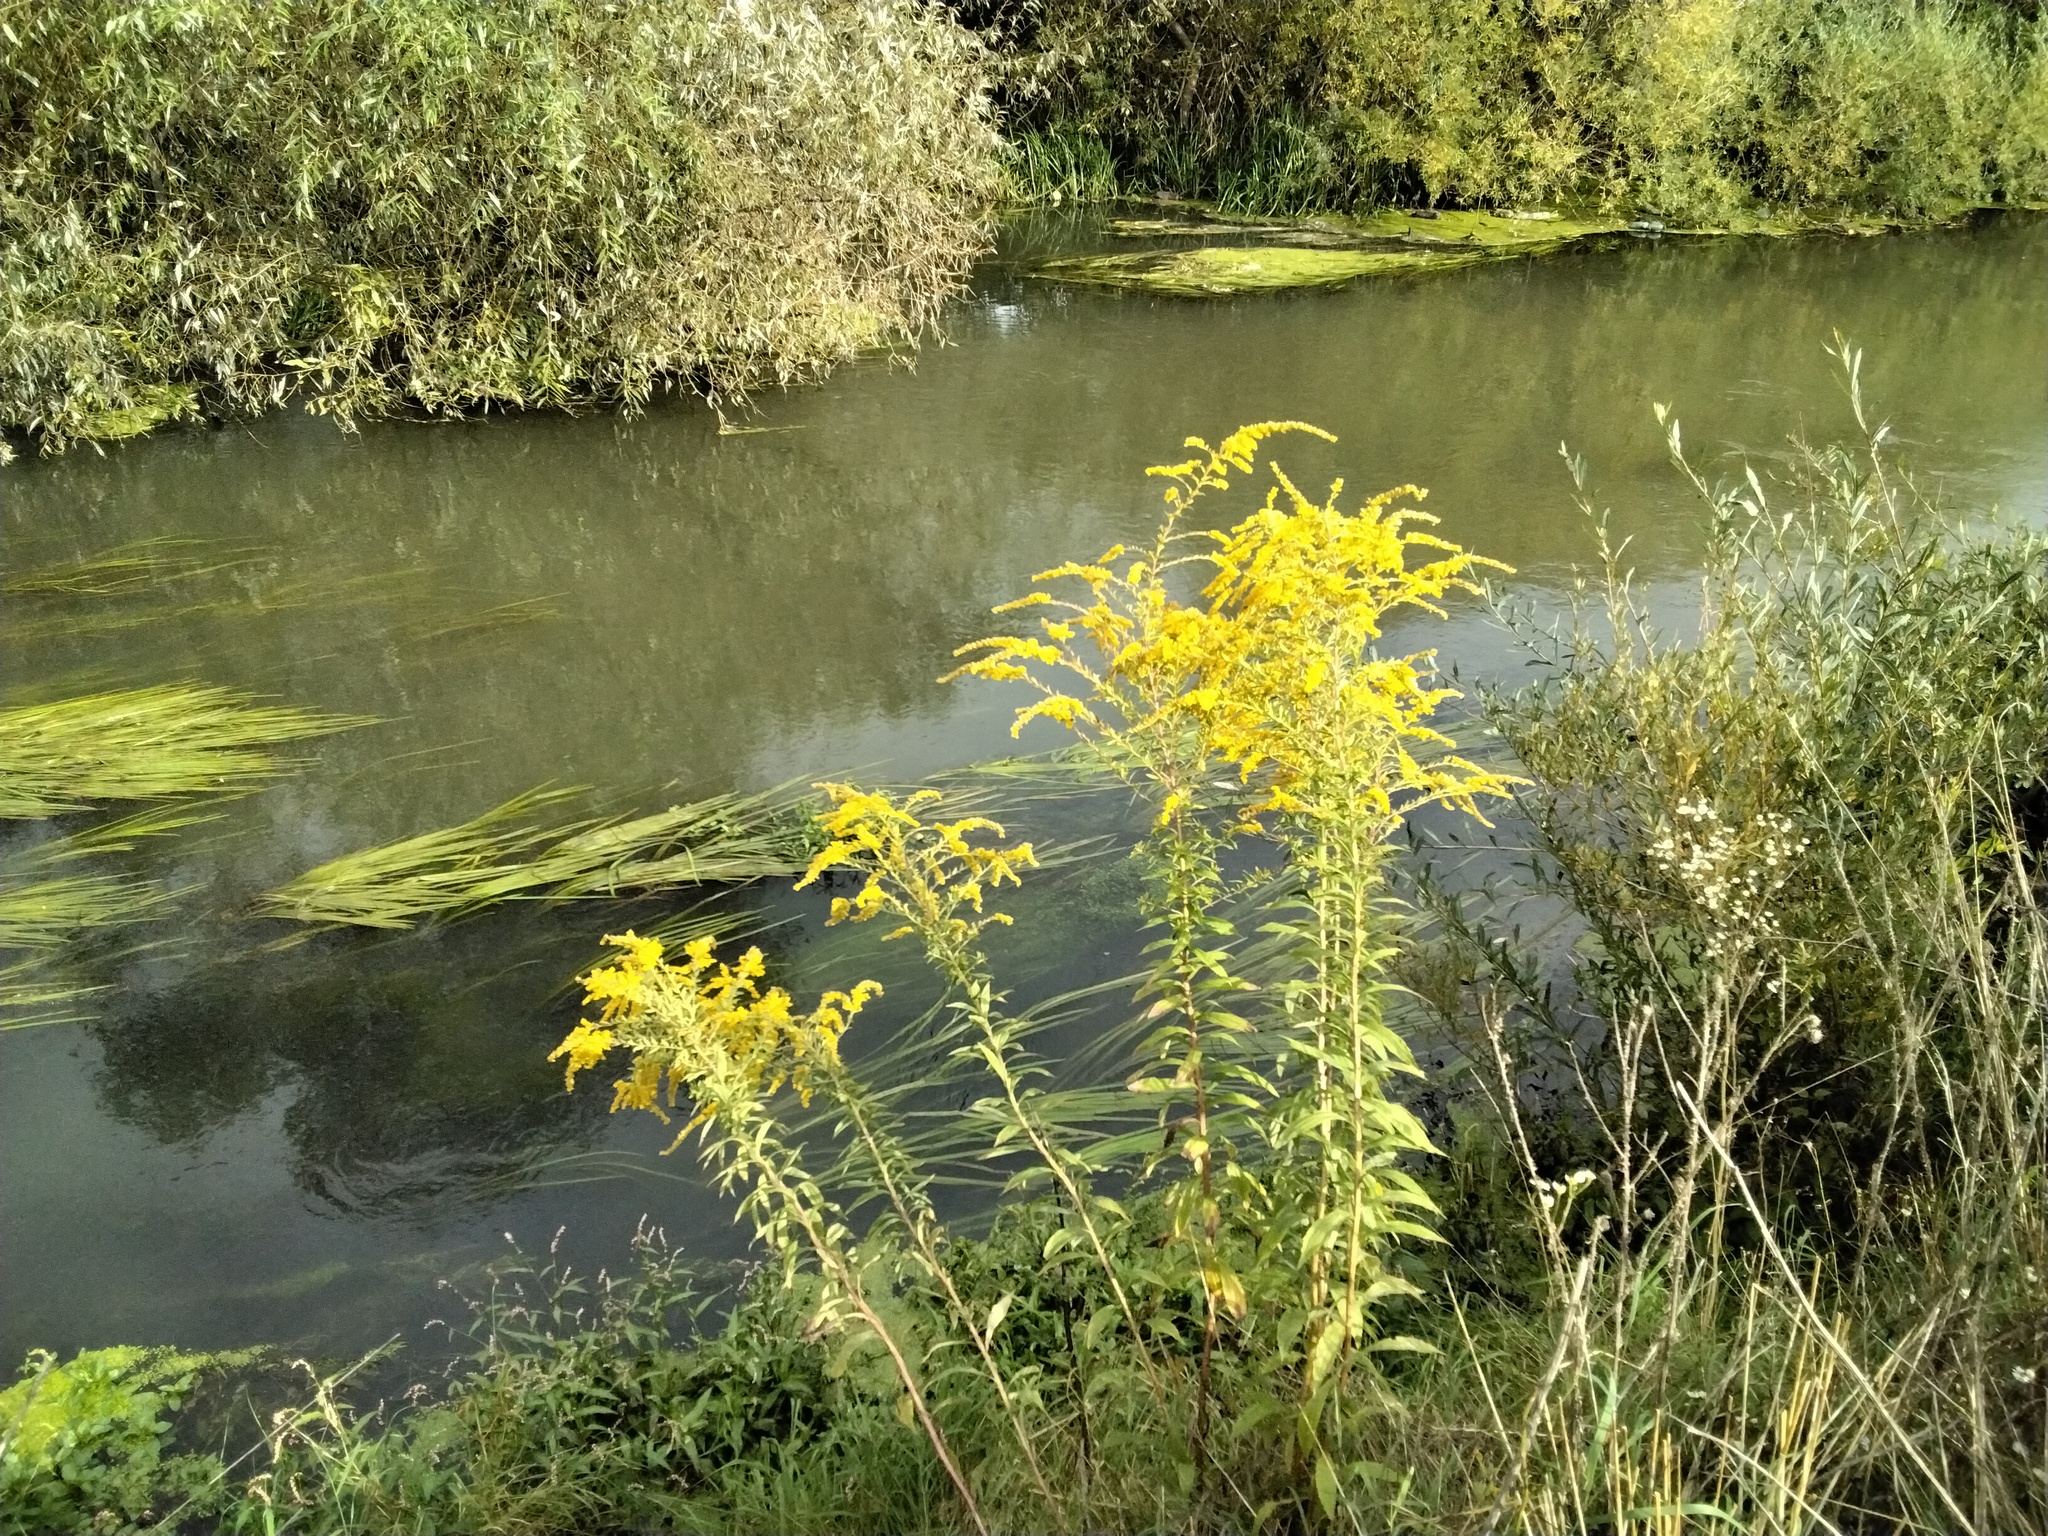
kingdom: Plantae
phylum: Tracheophyta
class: Magnoliopsida
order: Asterales
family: Asteraceae
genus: Solidago
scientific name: Solidago canadensis
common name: Canada goldenrod
